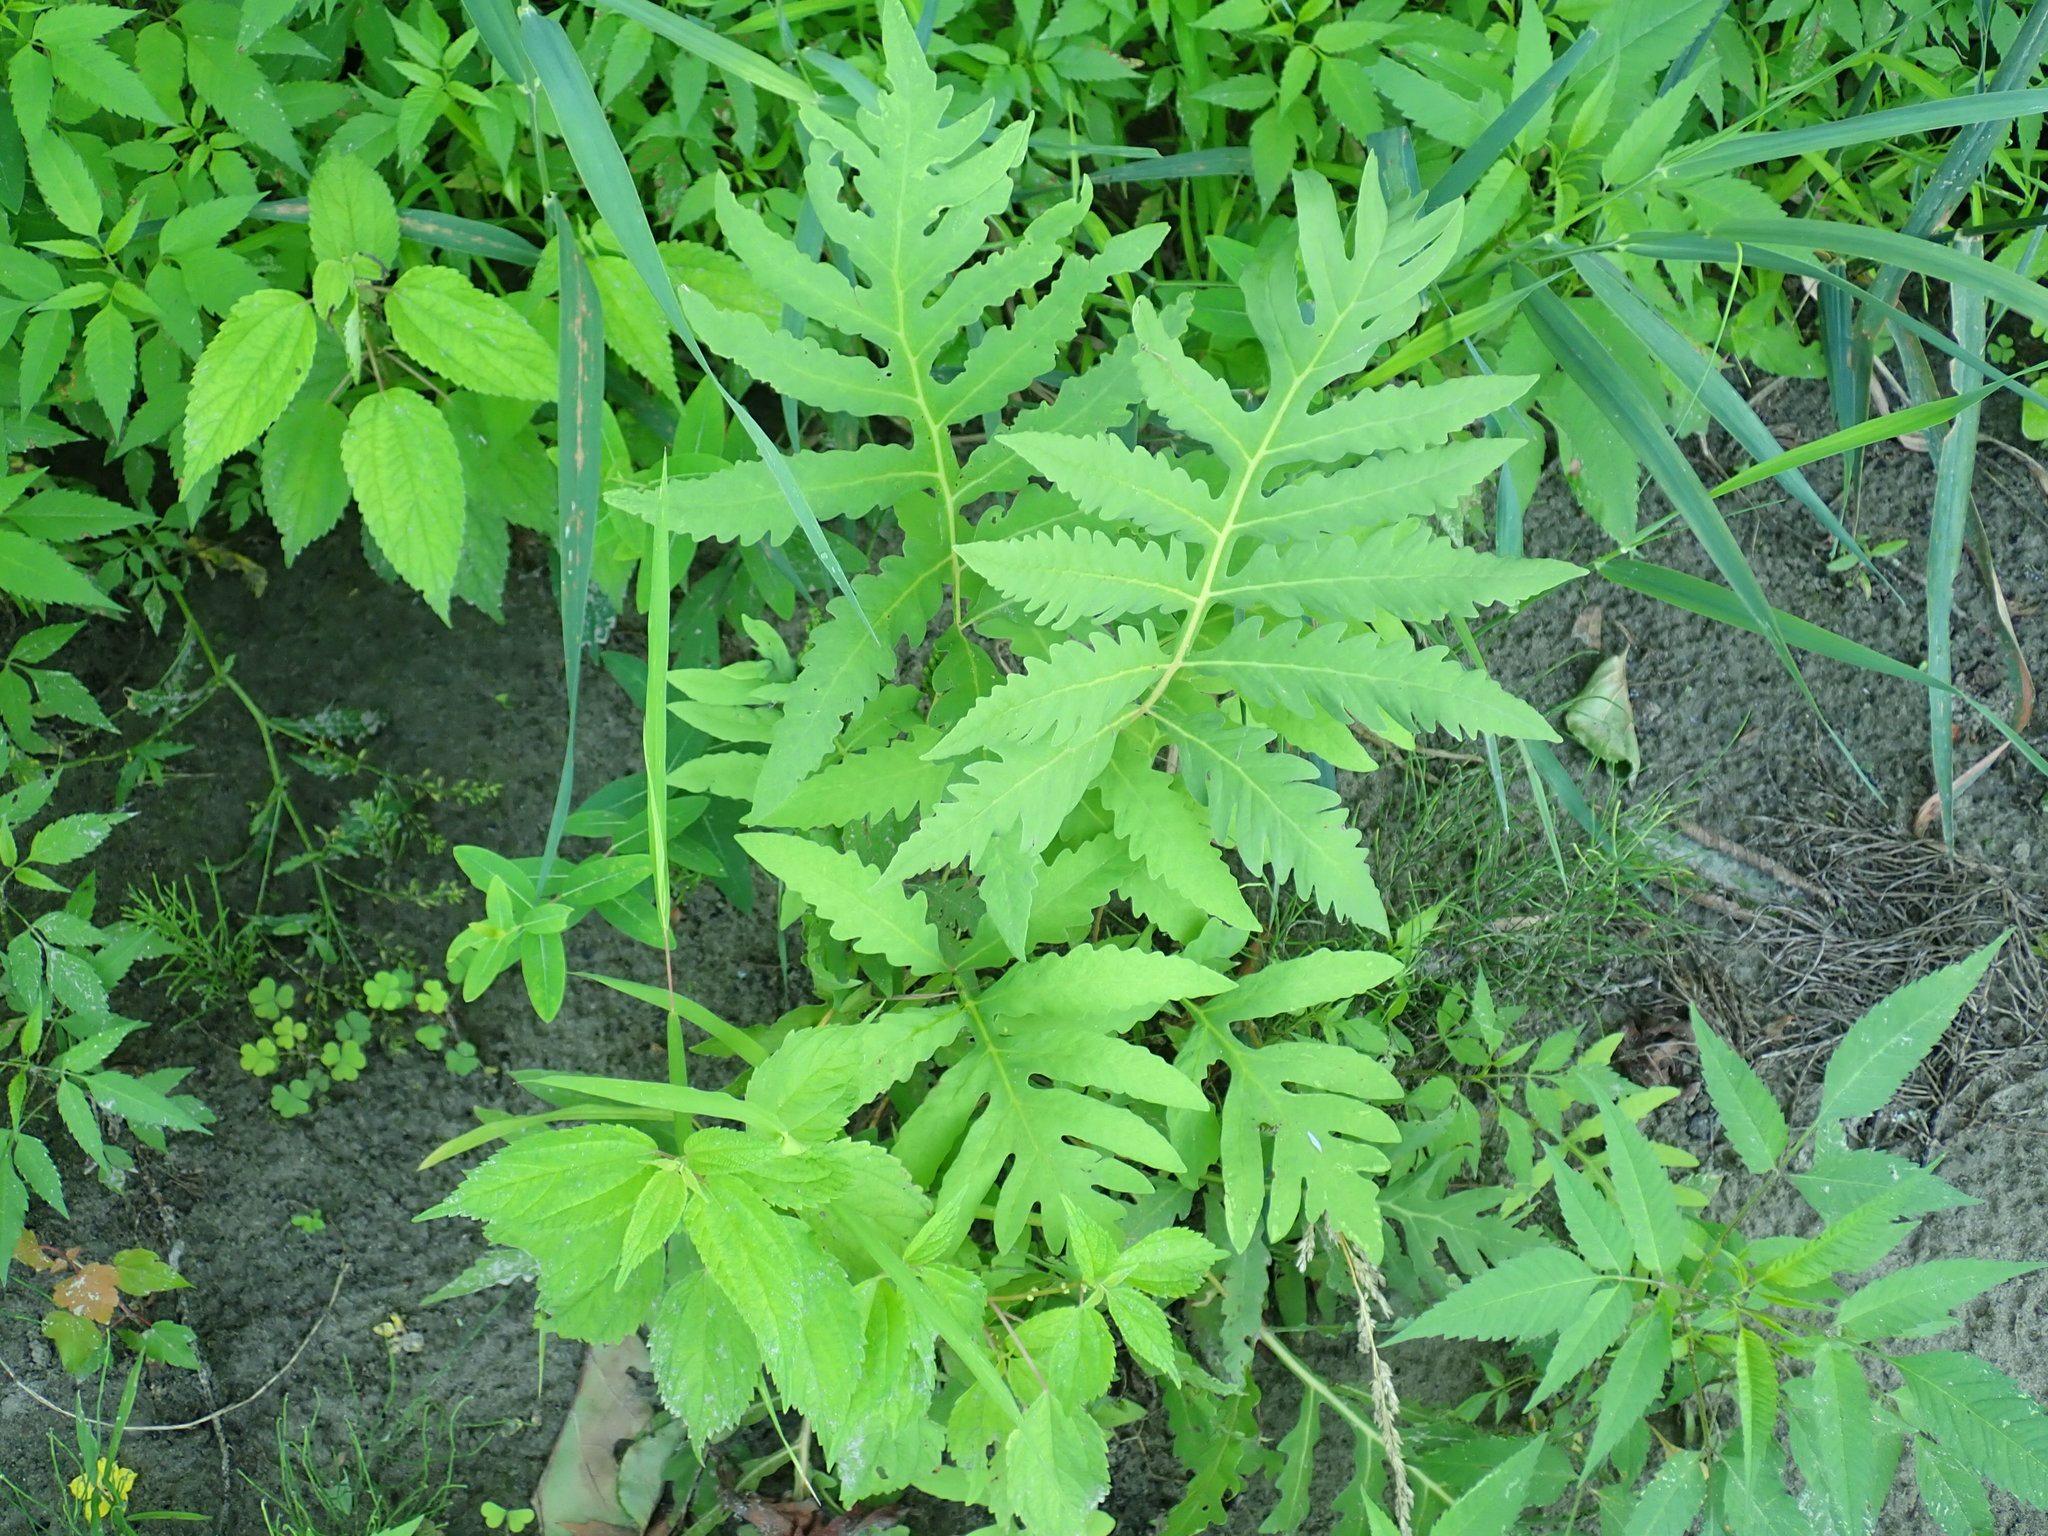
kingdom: Plantae
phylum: Tracheophyta
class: Polypodiopsida
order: Polypodiales
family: Onocleaceae
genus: Onoclea
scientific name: Onoclea sensibilis
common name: Sensitive fern
